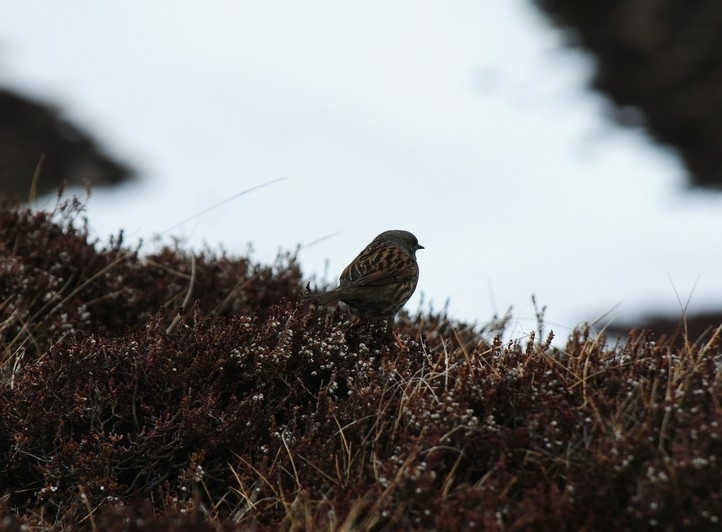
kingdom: Animalia
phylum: Chordata
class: Aves
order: Passeriformes
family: Prunellidae
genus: Prunella
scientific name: Prunella modularis
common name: Dunnock
